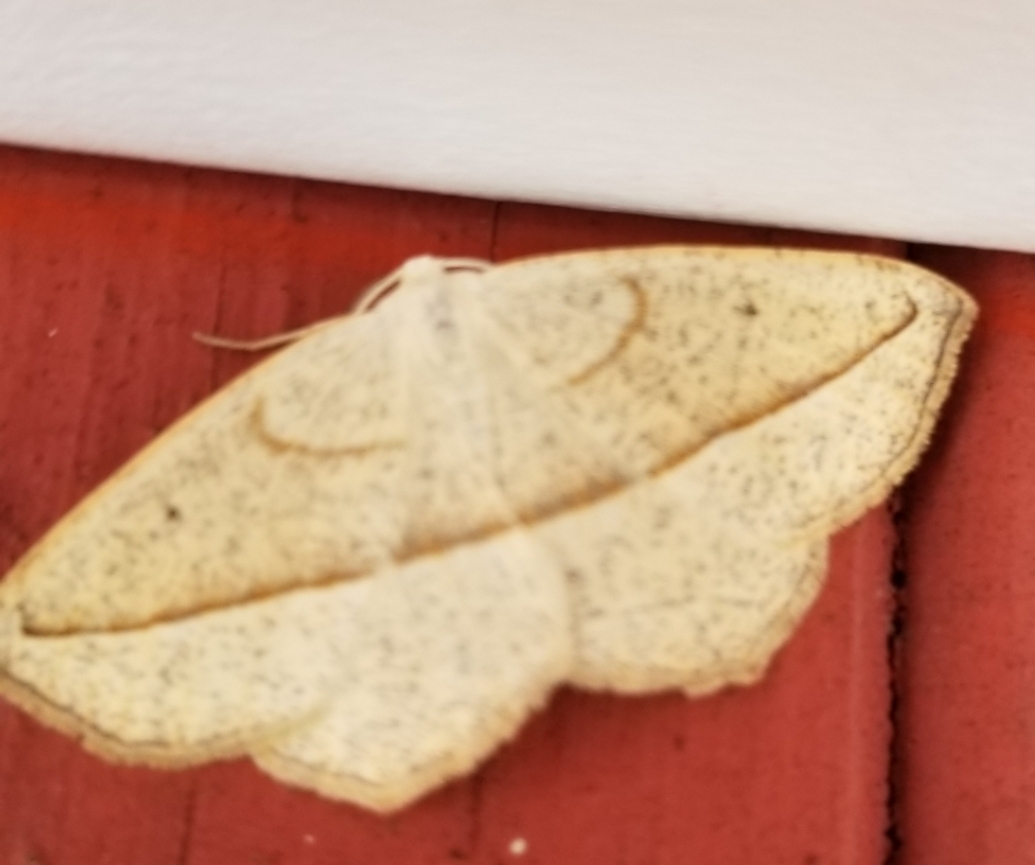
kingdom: Animalia
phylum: Arthropoda
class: Insecta
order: Lepidoptera
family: Geometridae
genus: Eusarca
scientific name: Eusarca confusaria
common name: Confused eusarca
